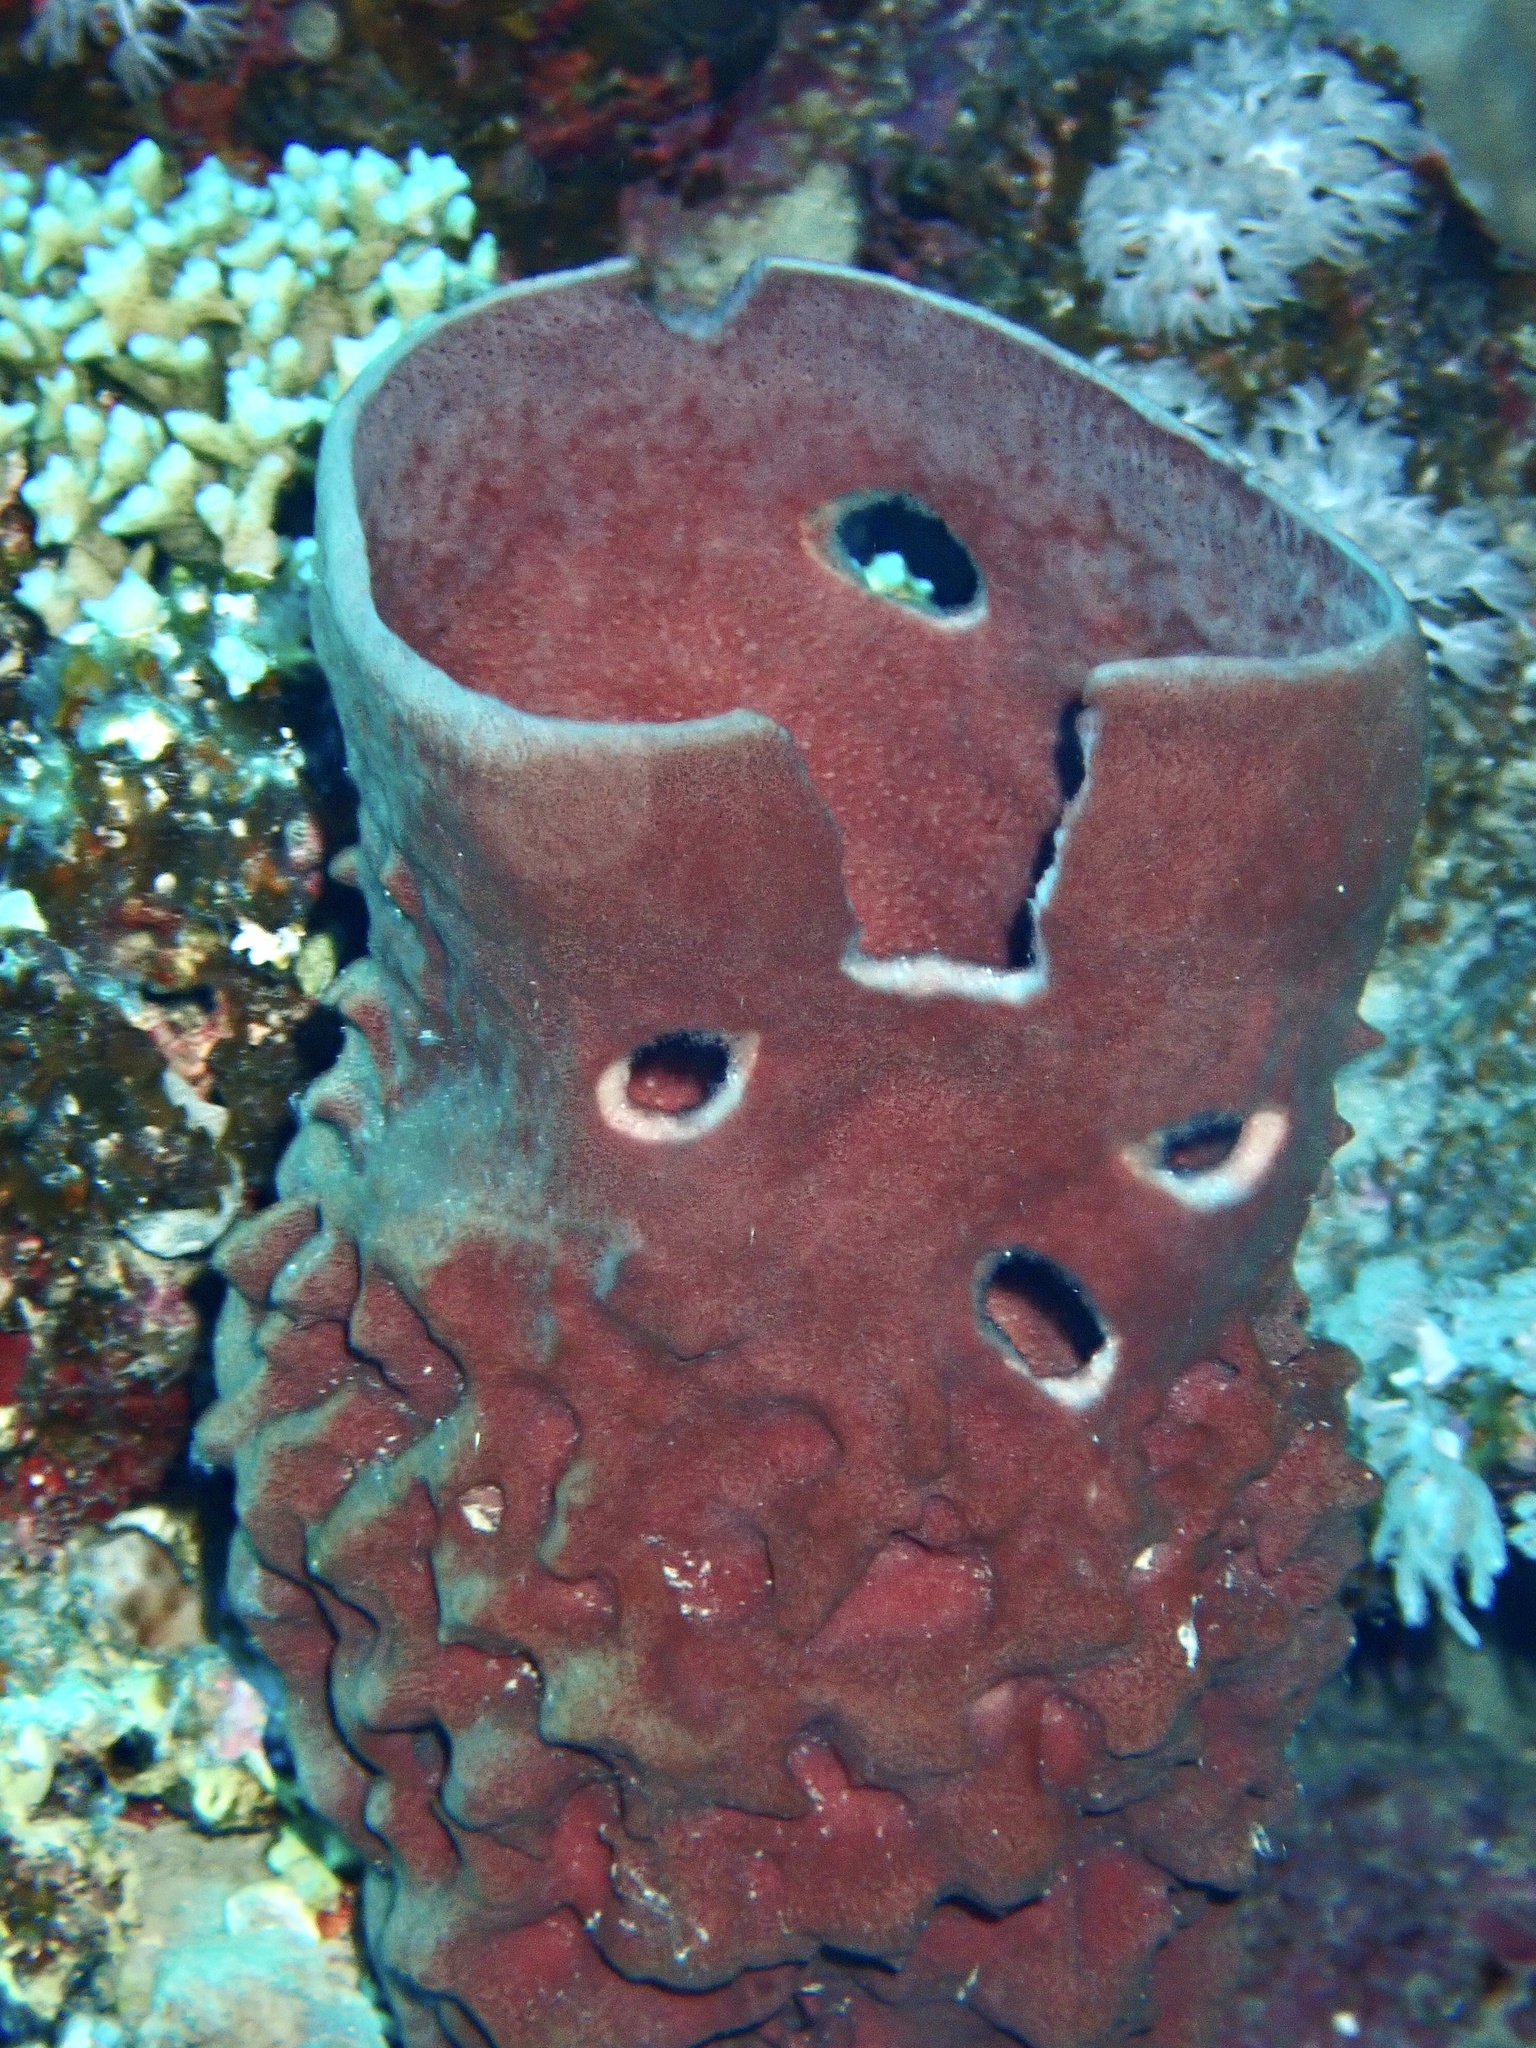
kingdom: Animalia
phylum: Porifera
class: Demospongiae
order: Haplosclerida
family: Callyspongiidae
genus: Callyspongia
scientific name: Callyspongia crassa
